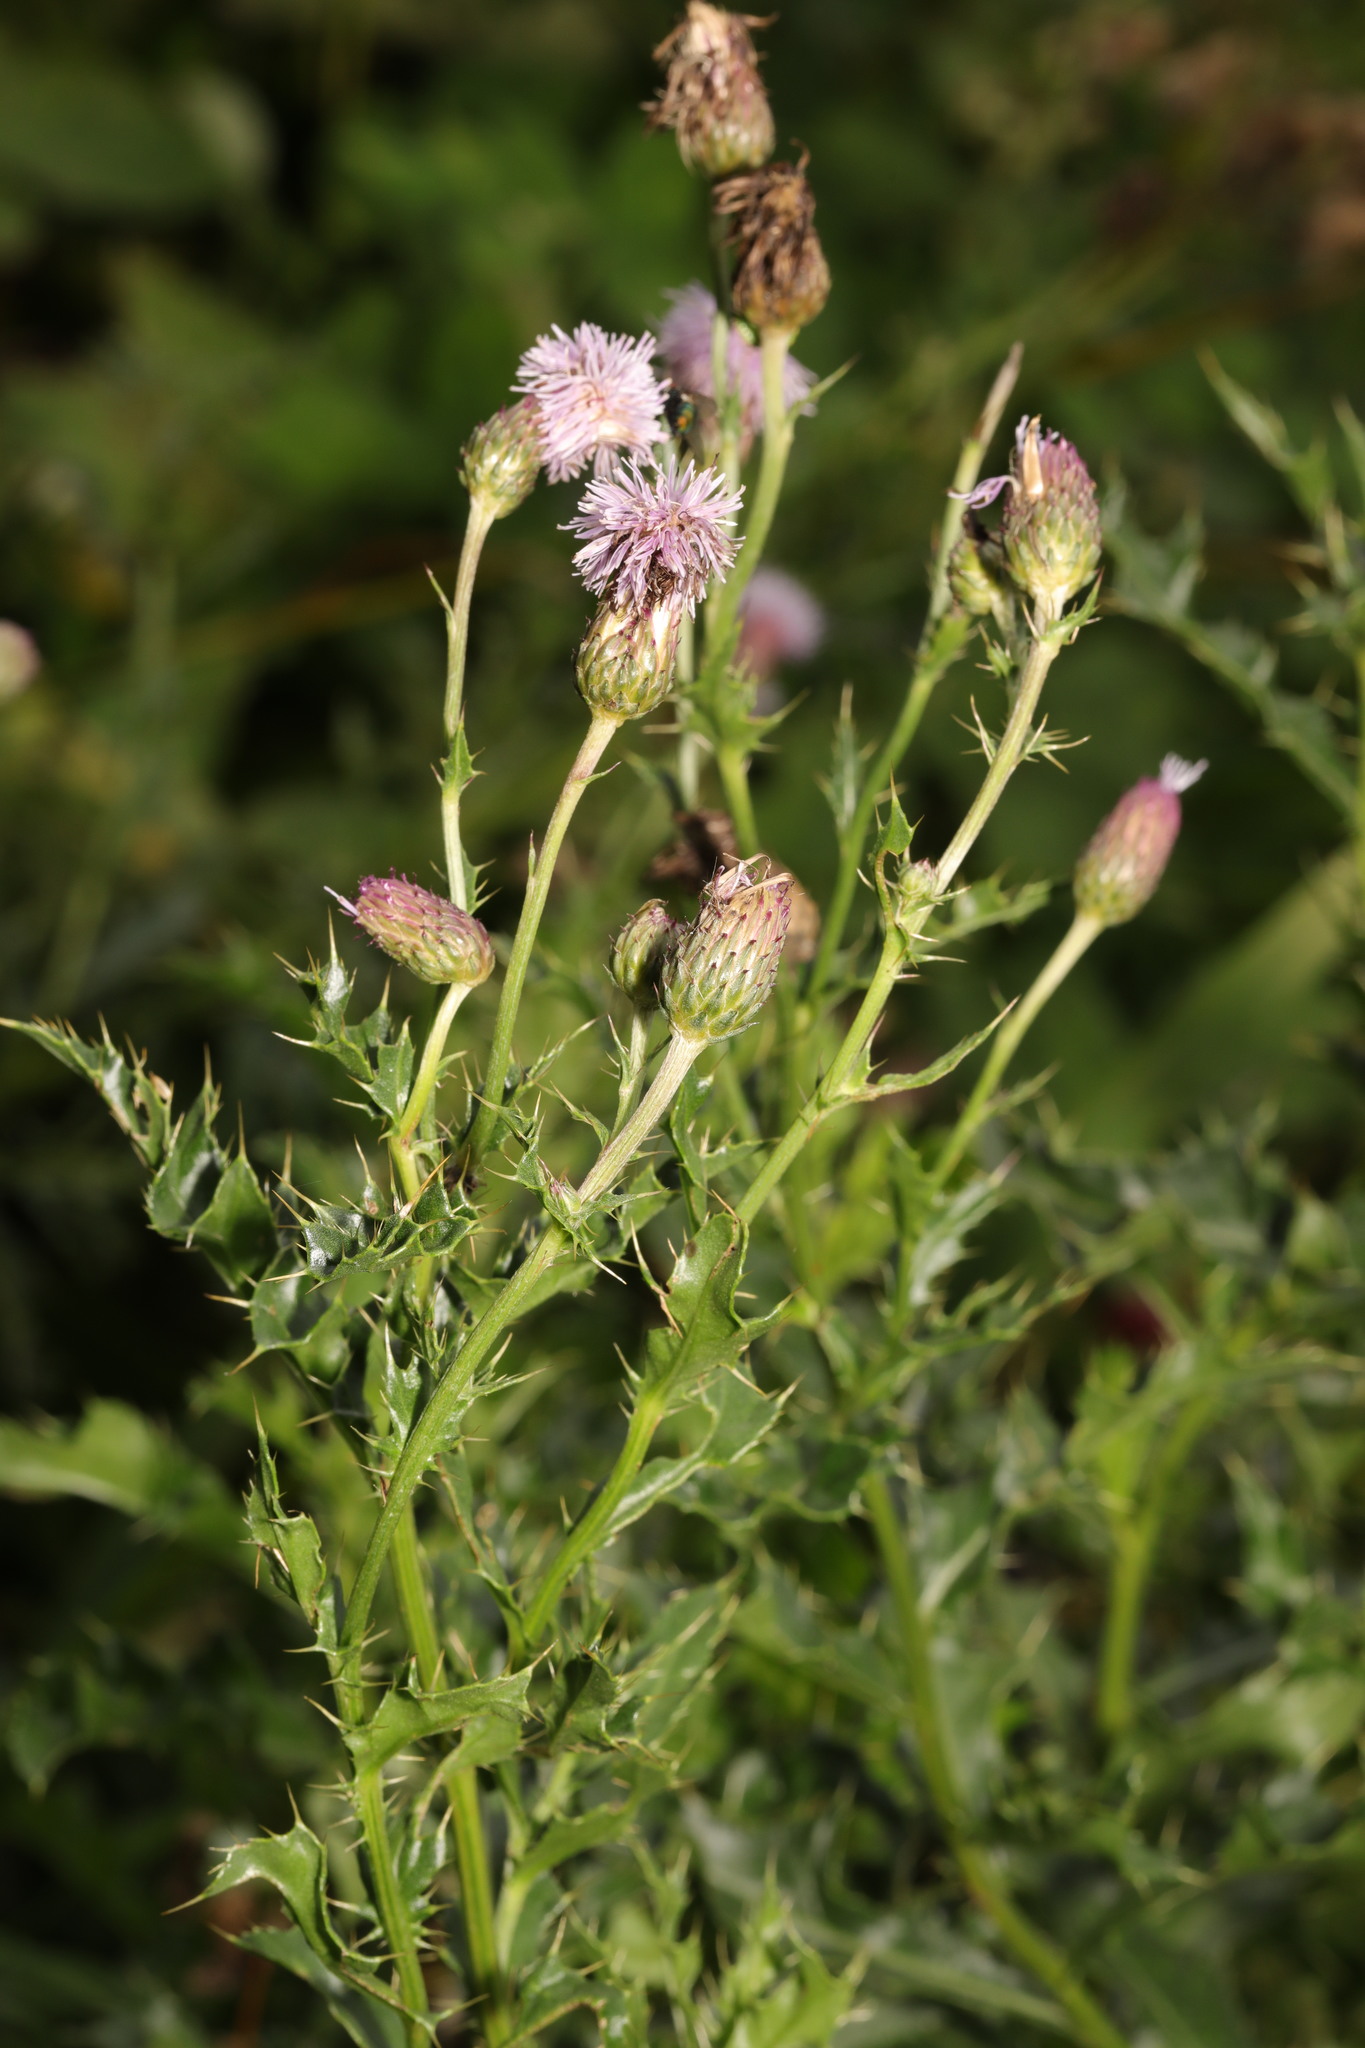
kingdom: Plantae
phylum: Tracheophyta
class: Magnoliopsida
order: Asterales
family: Asteraceae
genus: Cirsium
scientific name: Cirsium arvense
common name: Creeping thistle
